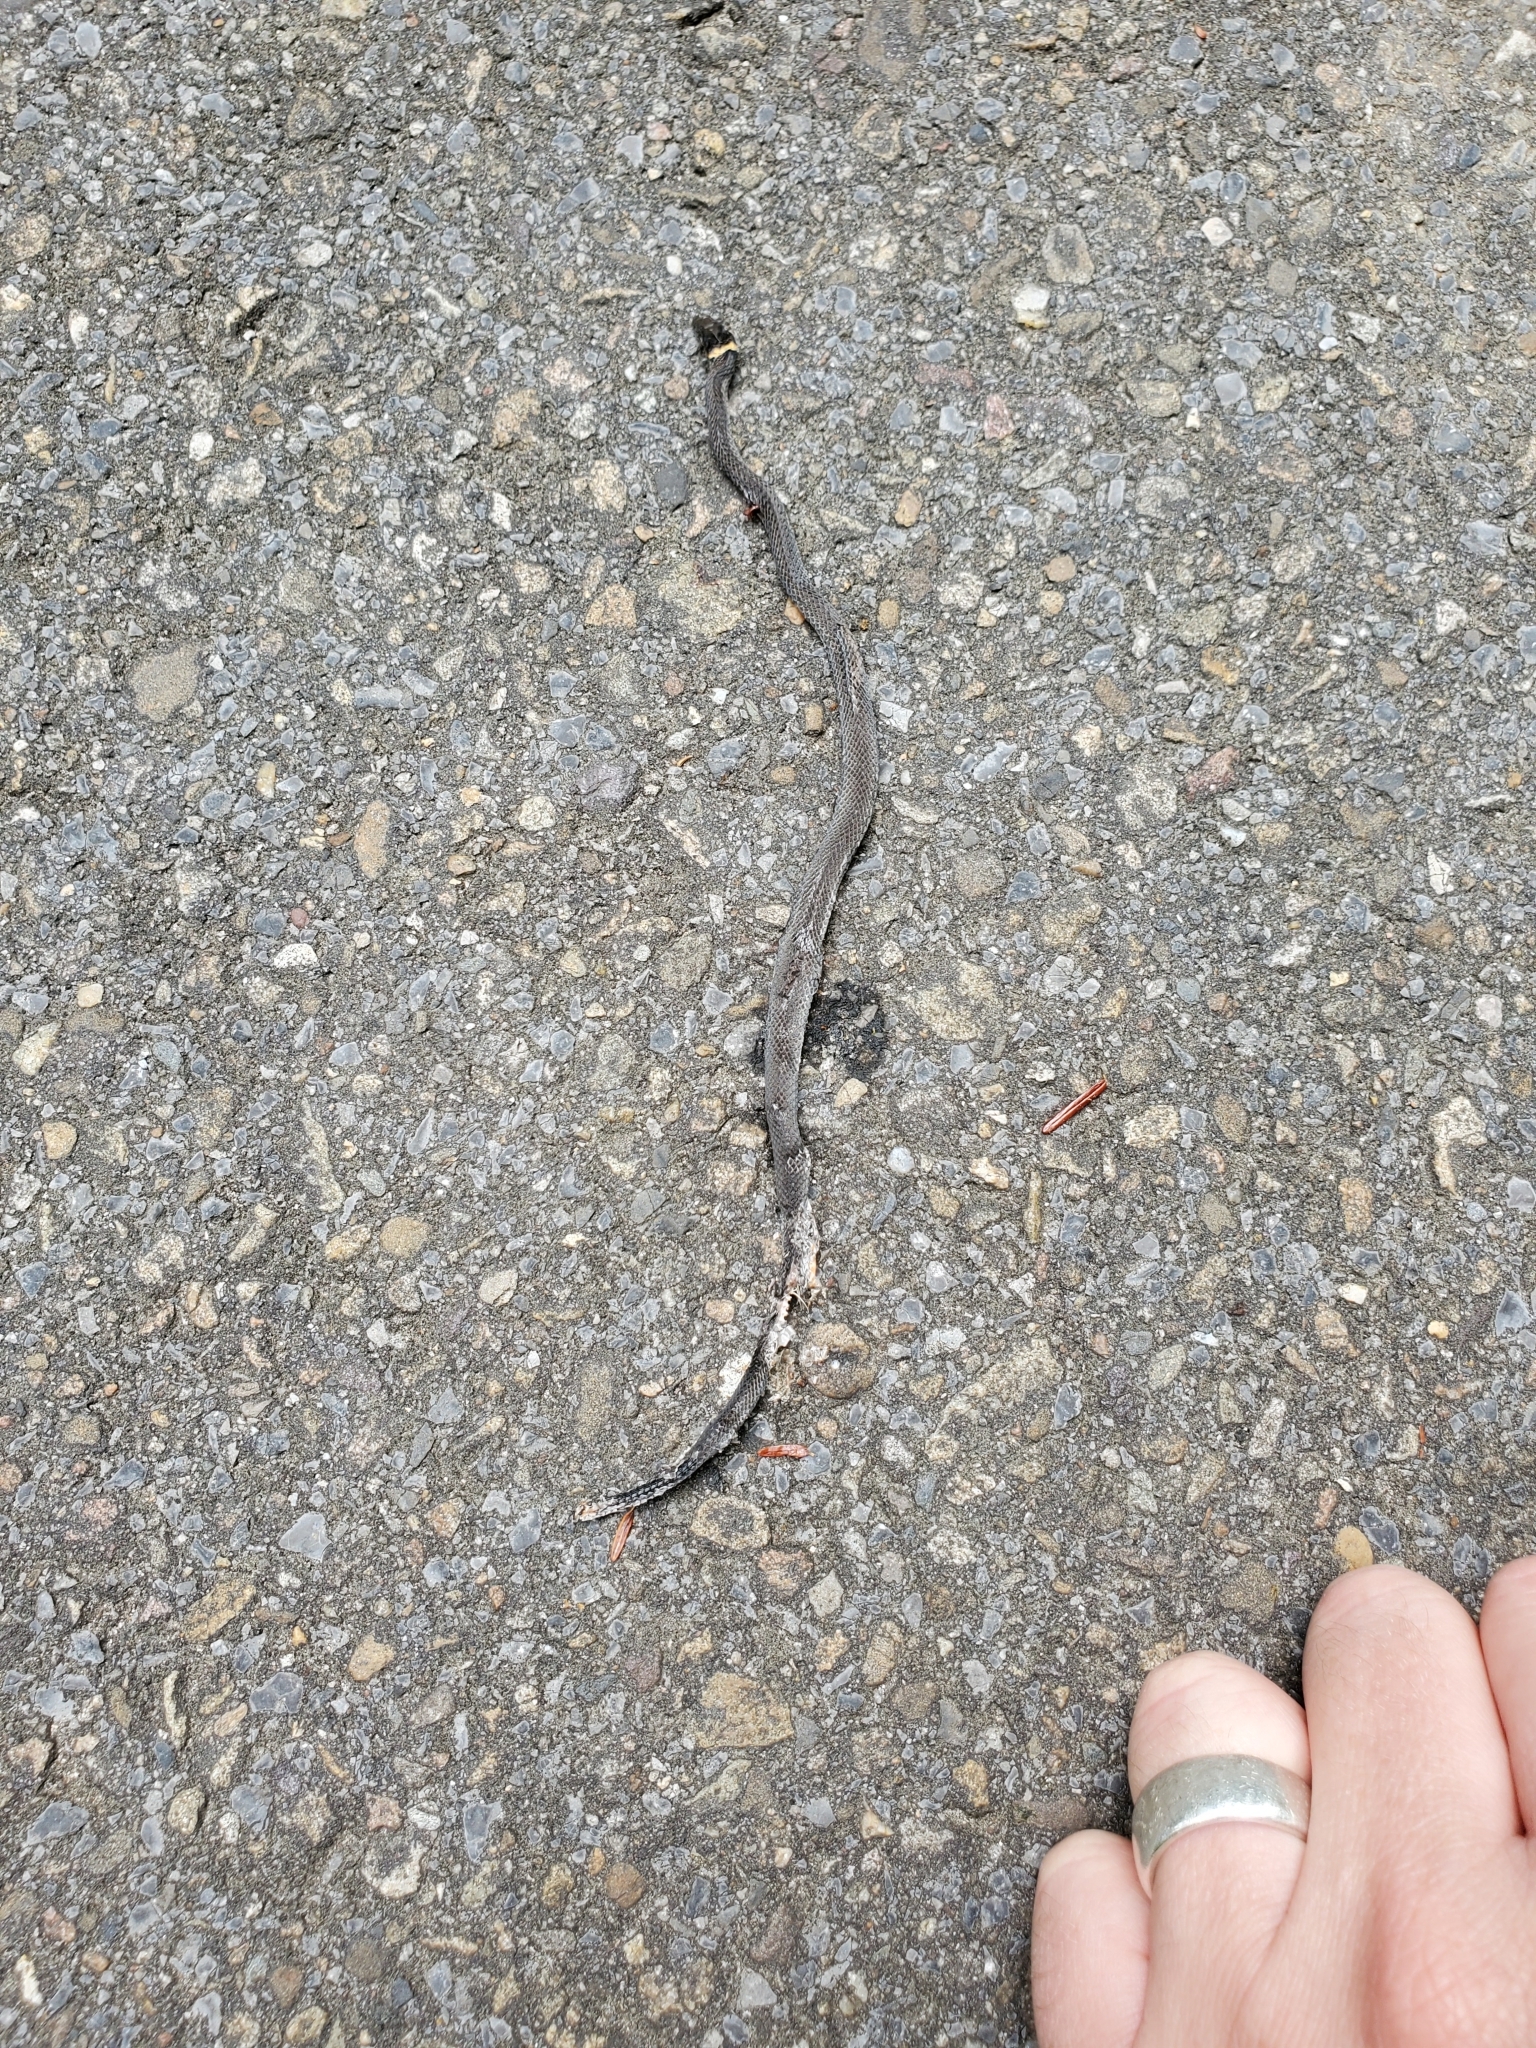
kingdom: Animalia
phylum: Chordata
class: Squamata
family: Colubridae
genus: Diadophis
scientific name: Diadophis punctatus
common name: Ringneck snake
